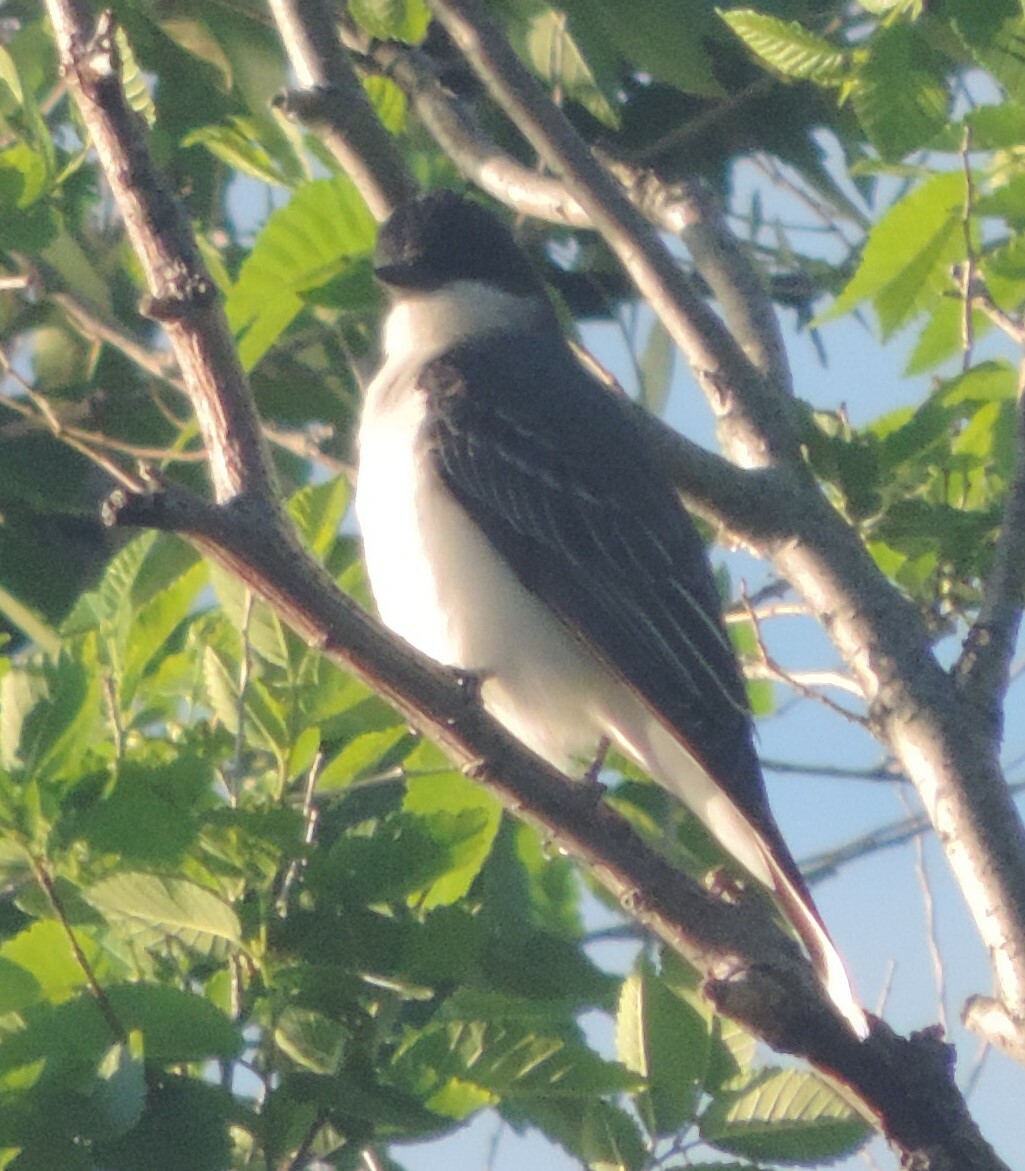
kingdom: Animalia
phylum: Chordata
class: Aves
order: Passeriformes
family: Tyrannidae
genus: Tyrannus
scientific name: Tyrannus tyrannus
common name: Eastern kingbird
